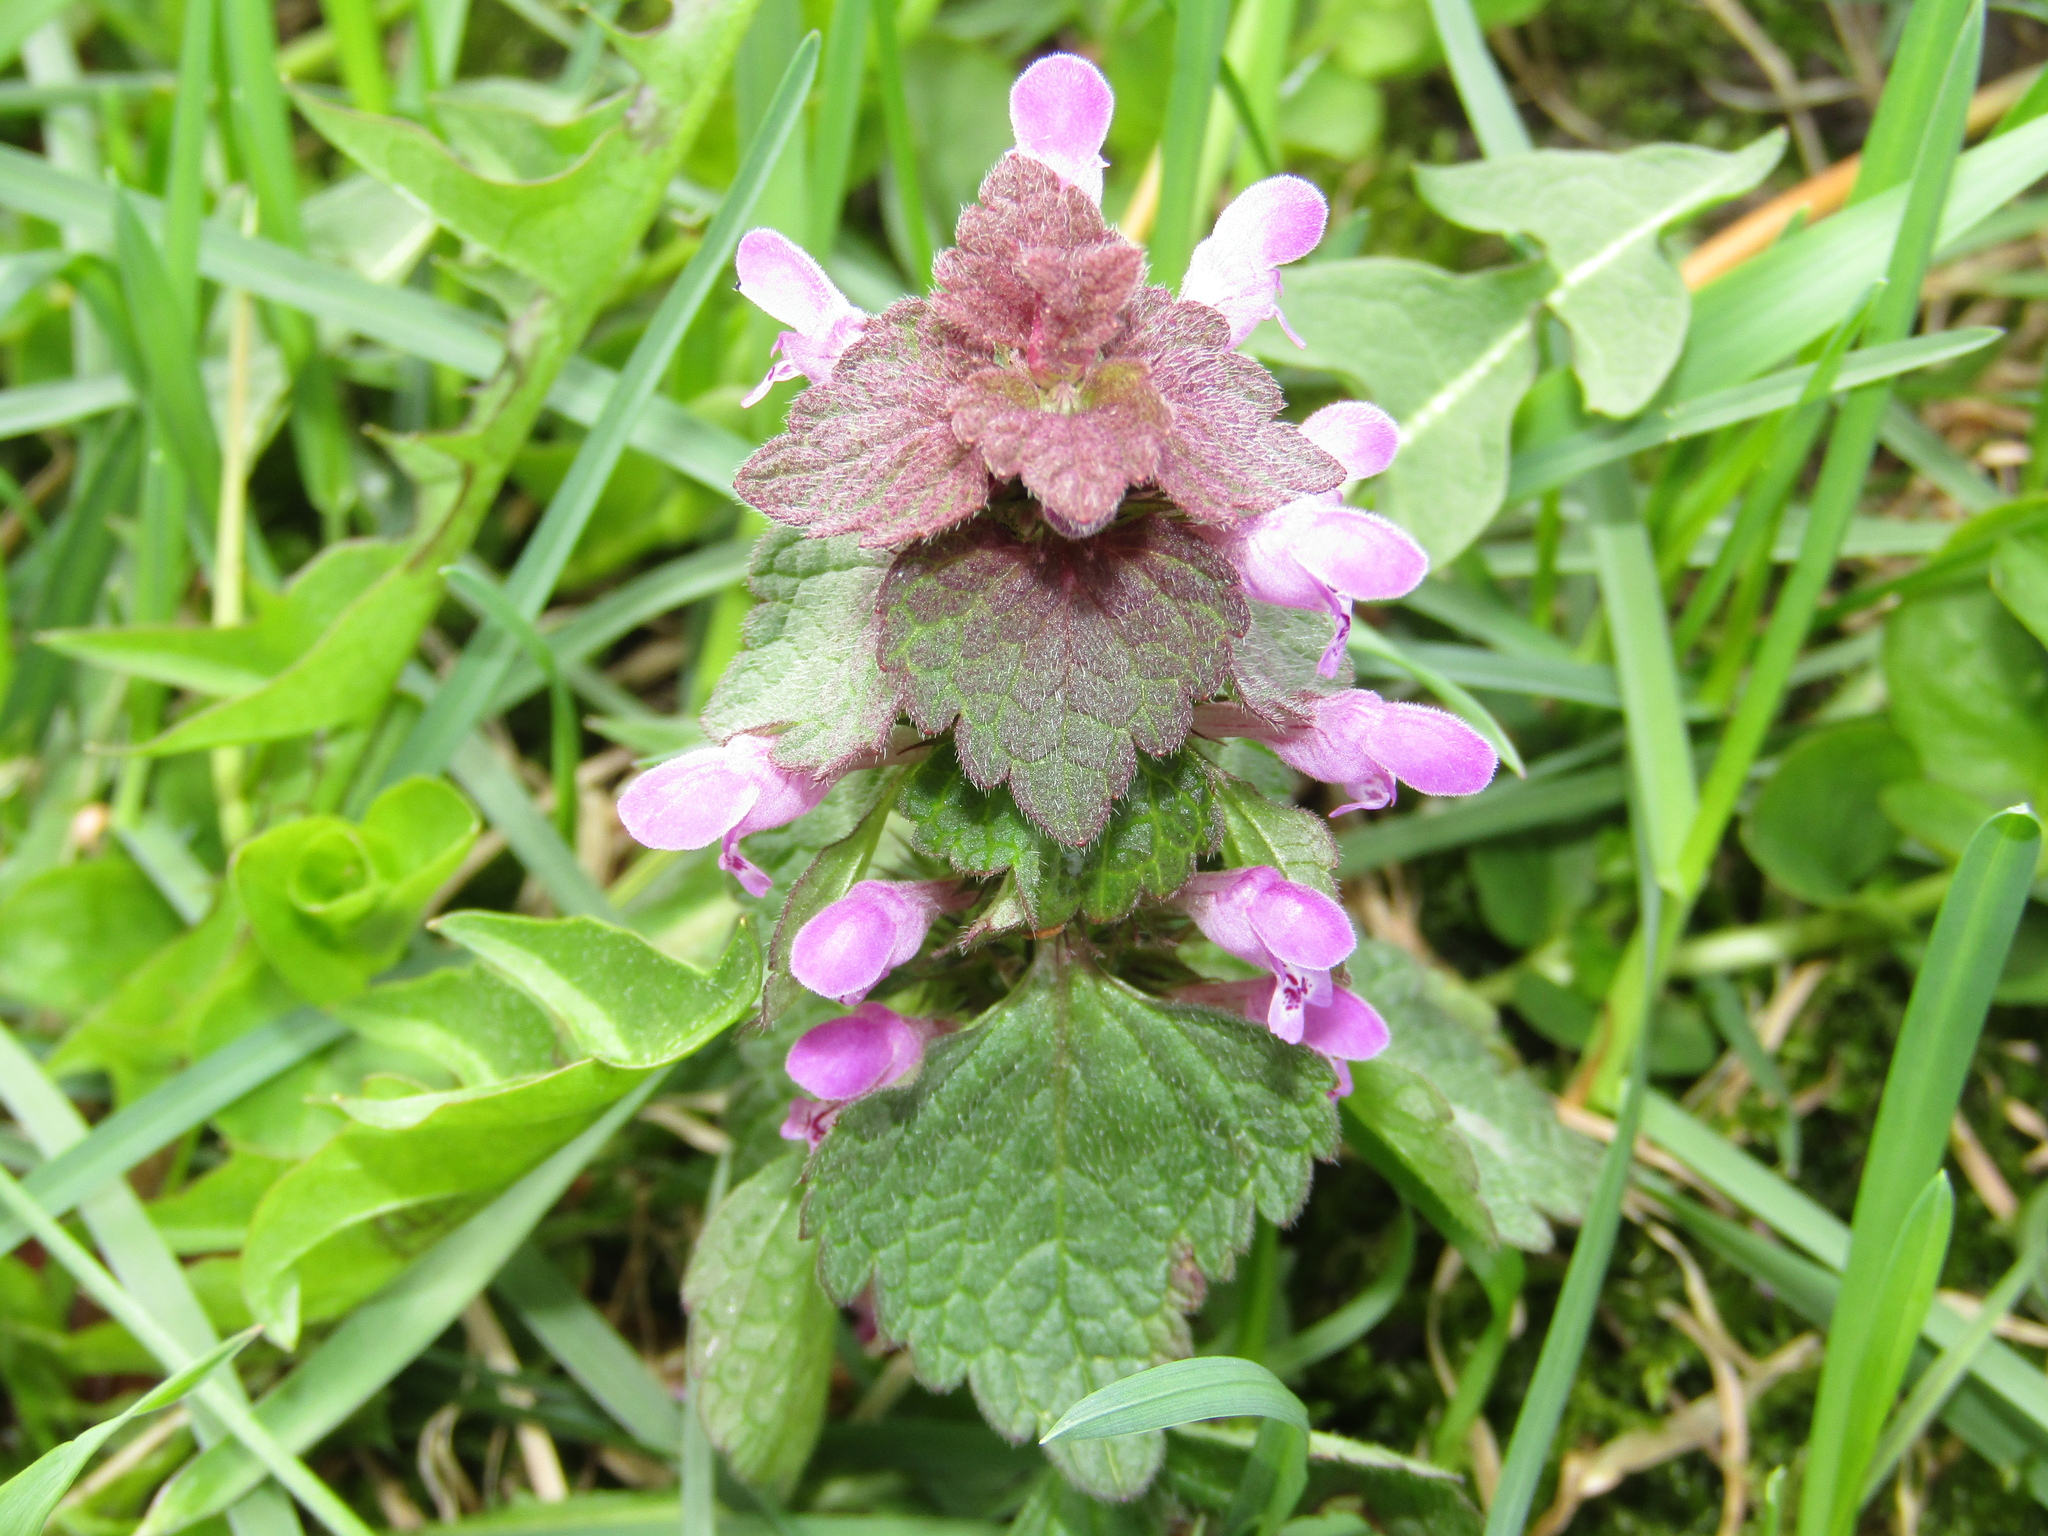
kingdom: Plantae
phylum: Tracheophyta
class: Magnoliopsida
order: Lamiales
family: Lamiaceae
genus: Lamium
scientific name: Lamium purpureum
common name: Red dead-nettle
